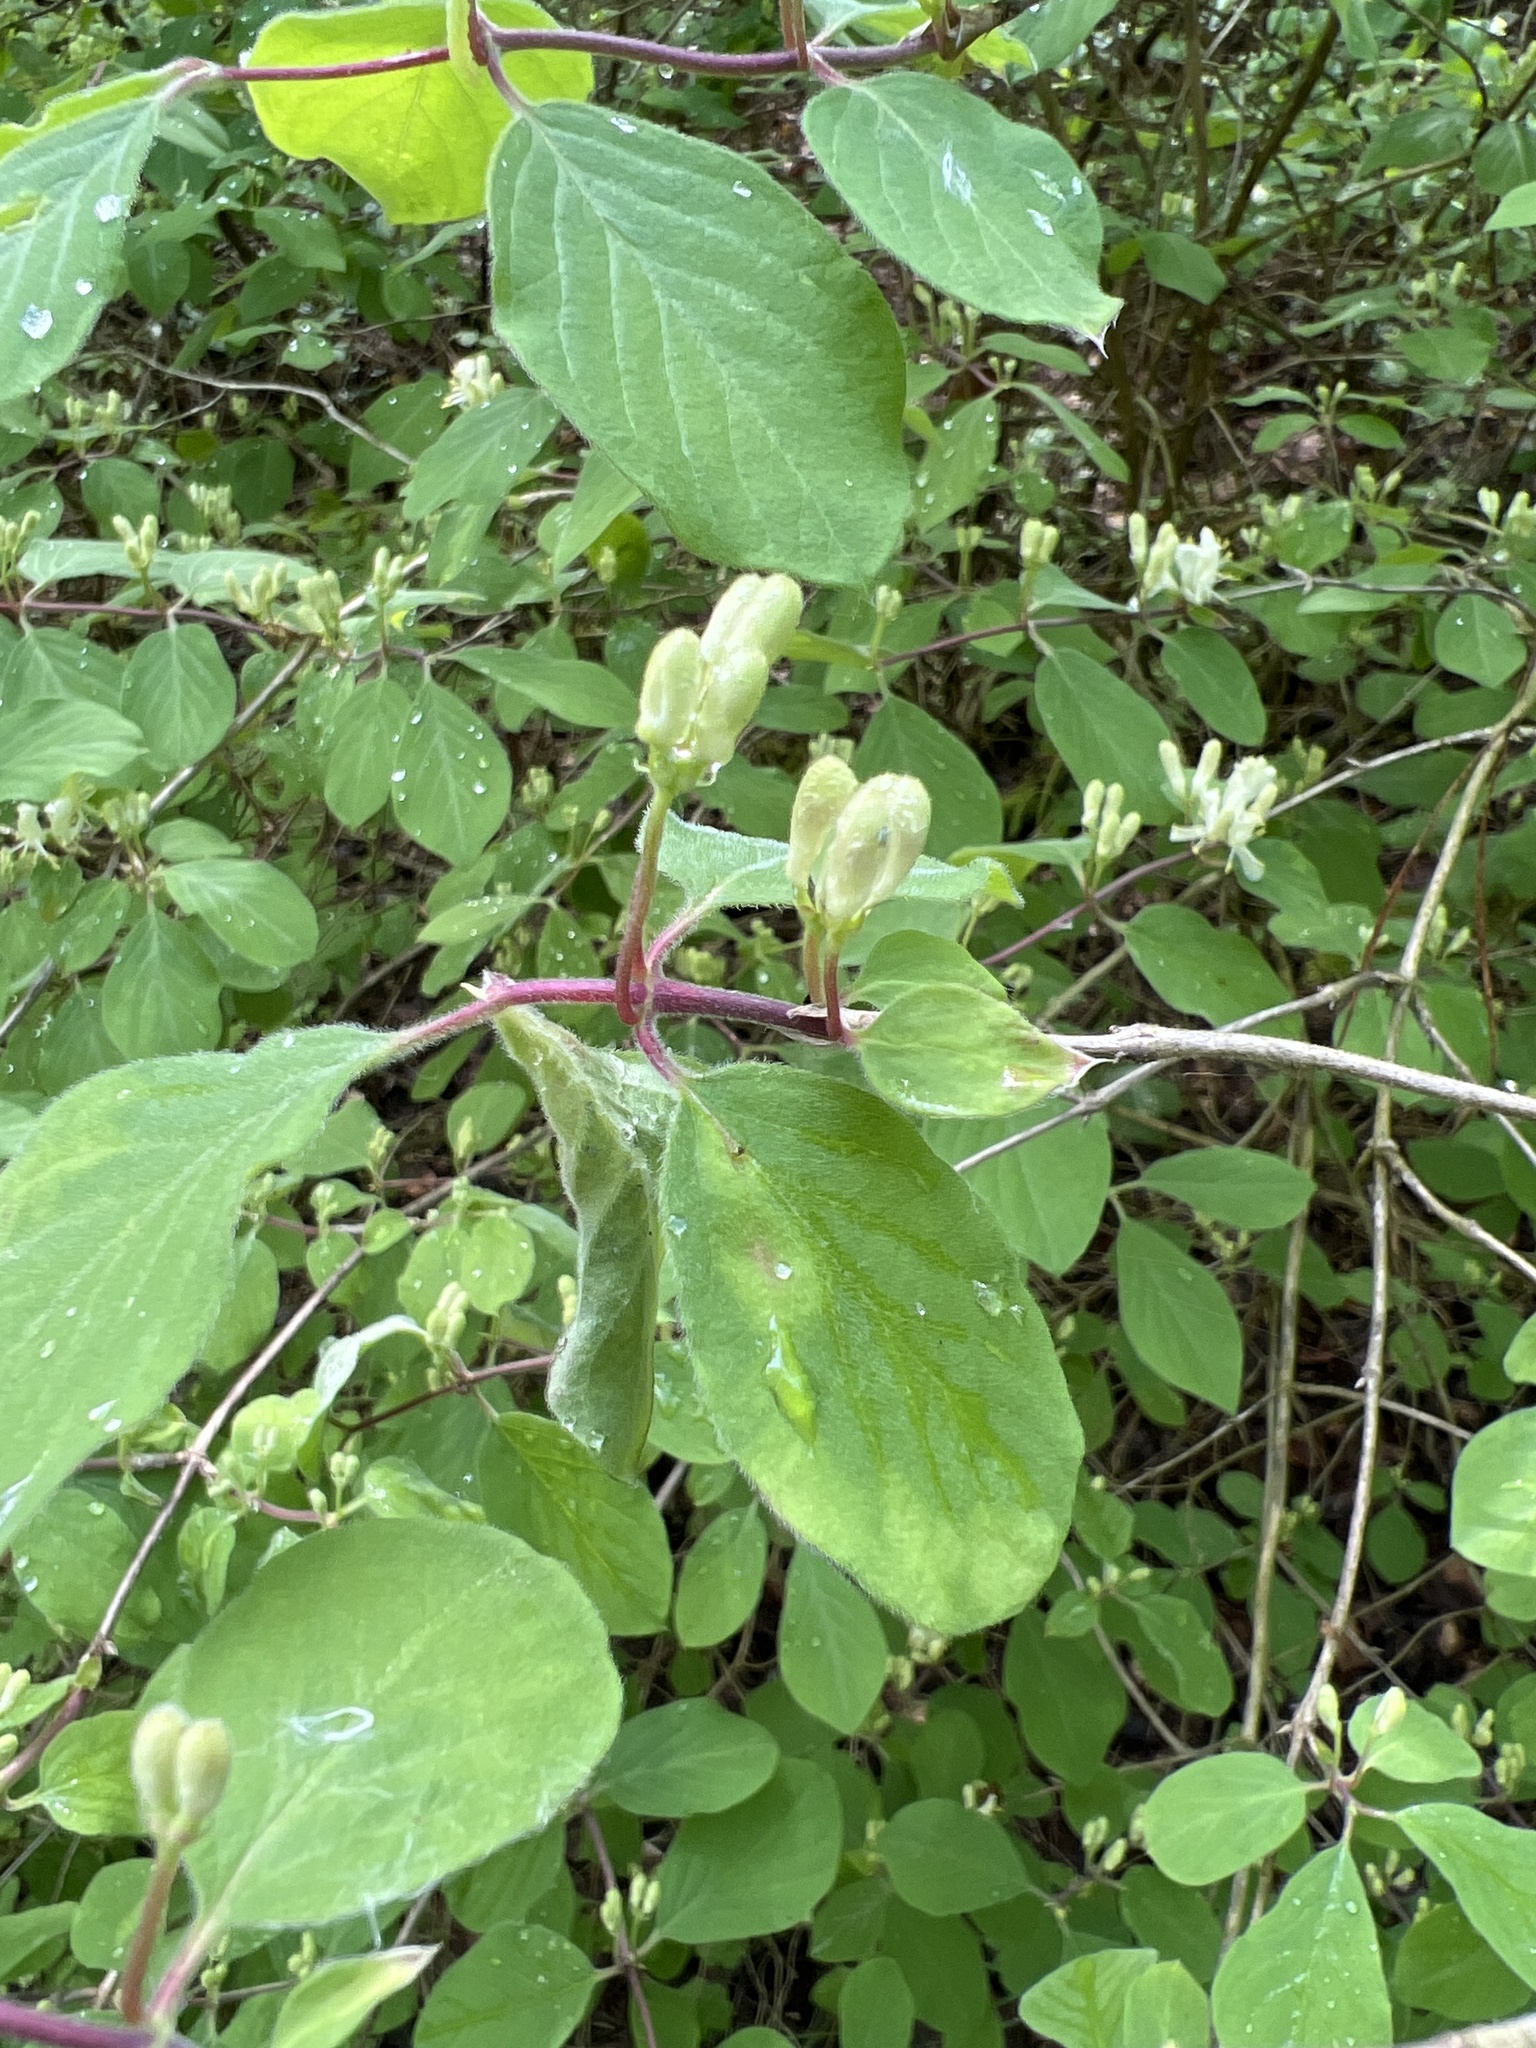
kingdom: Plantae
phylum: Tracheophyta
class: Magnoliopsida
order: Dipsacales
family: Caprifoliaceae
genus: Lonicera
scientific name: Lonicera xylosteum
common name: Fly honeysuckle
